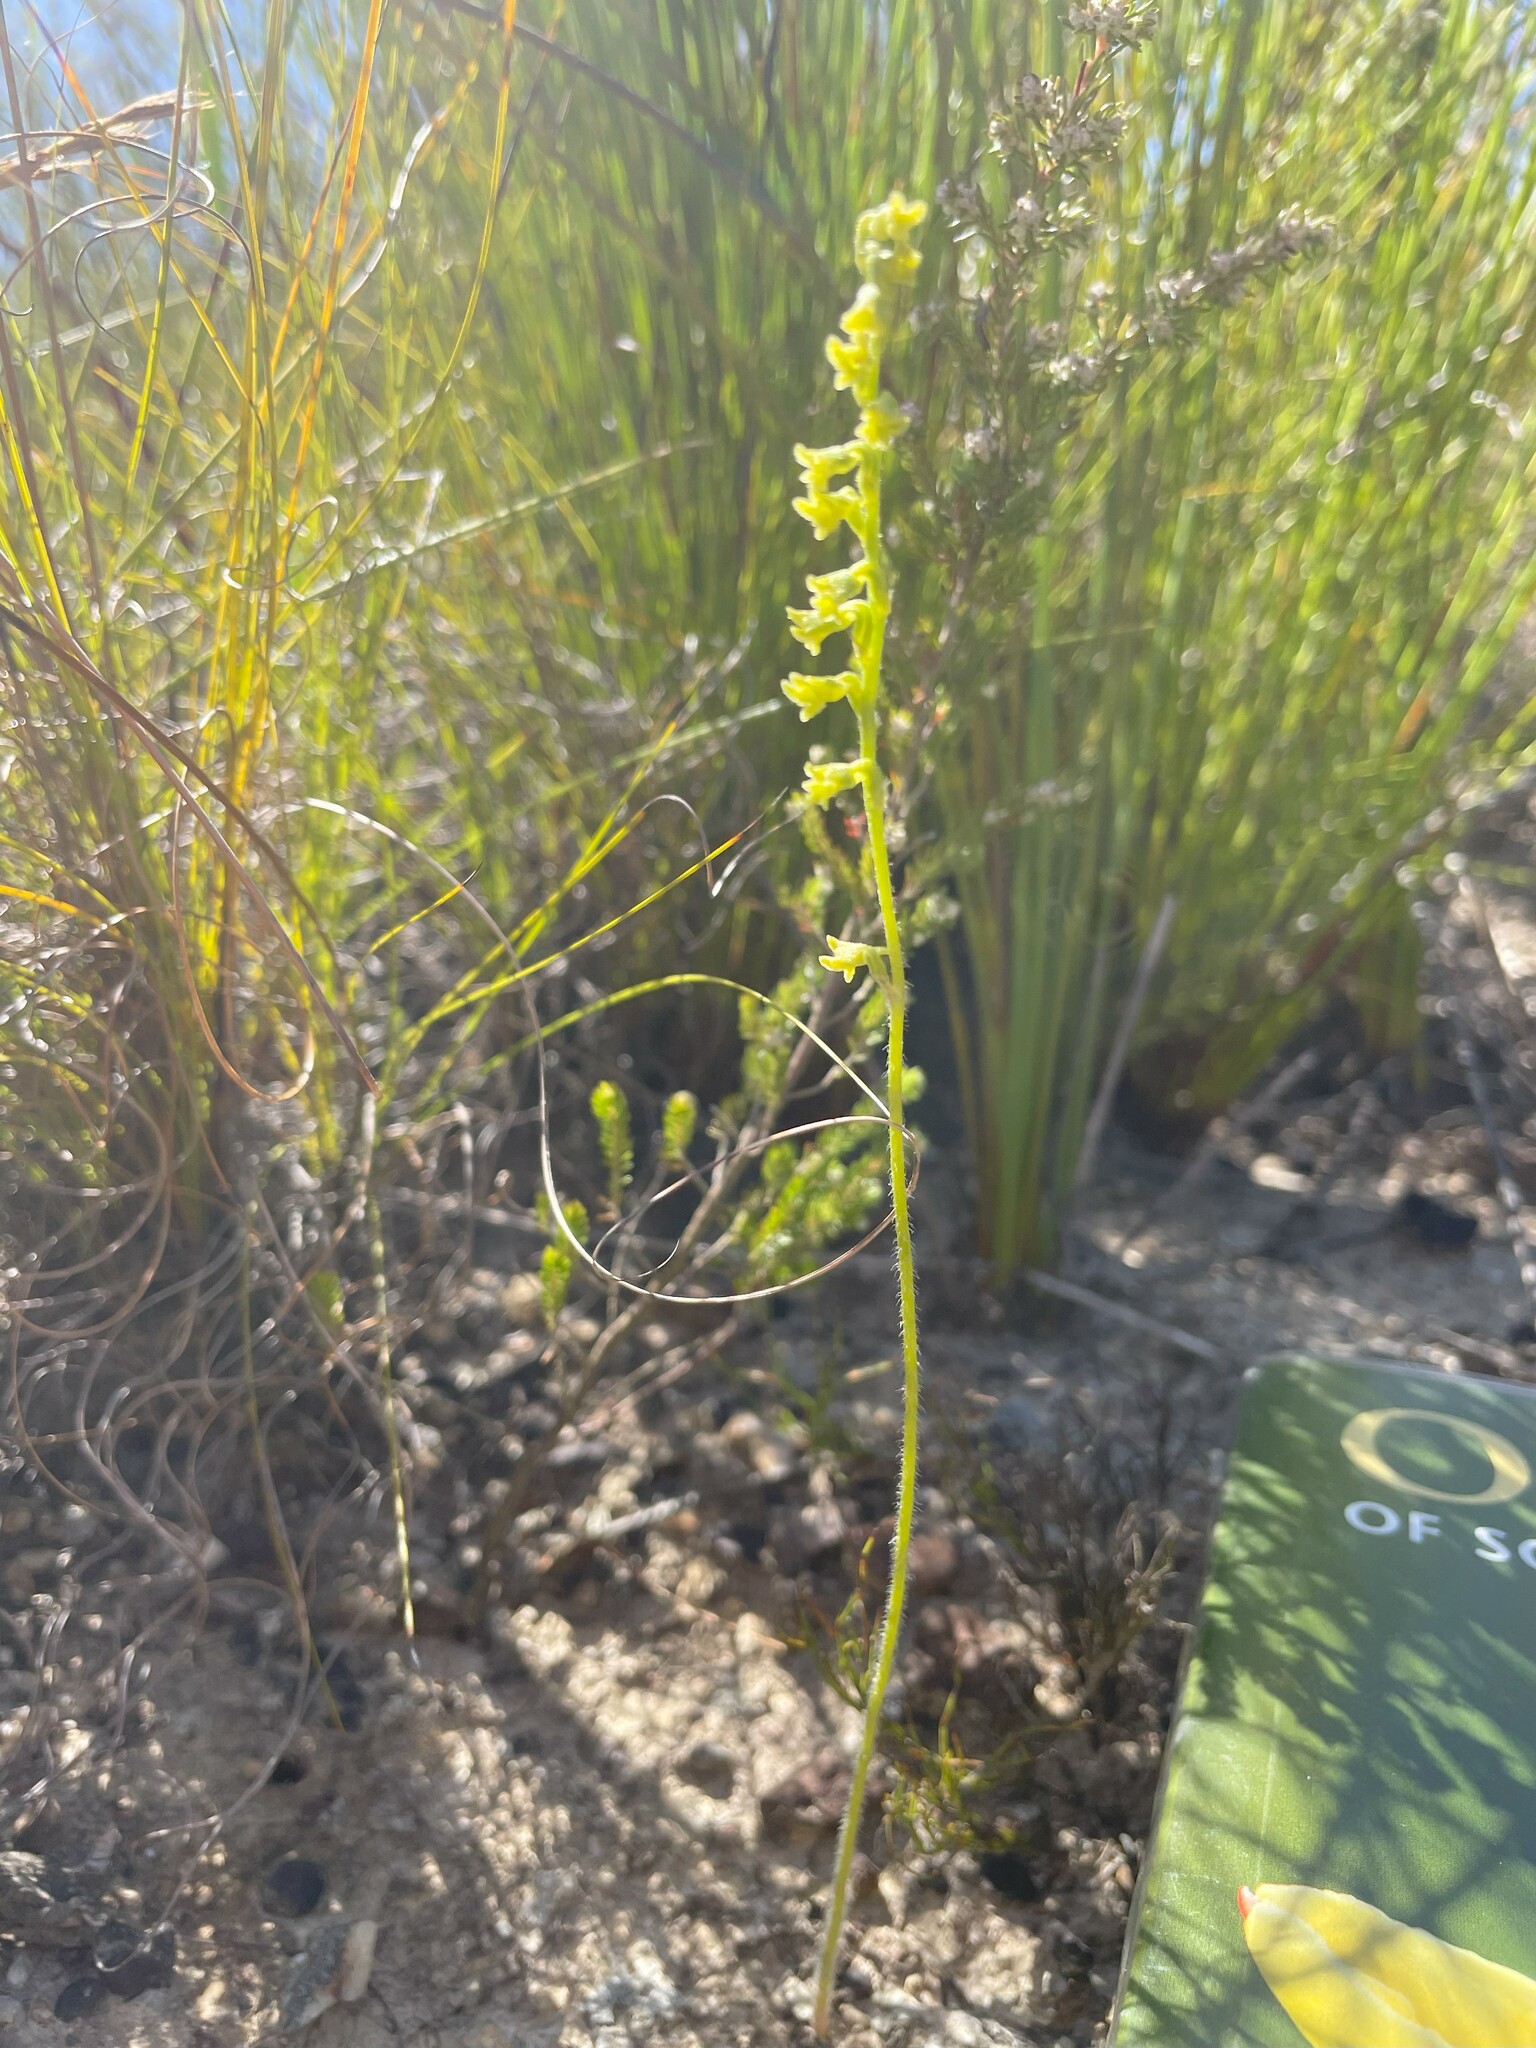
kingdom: Plantae
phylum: Tracheophyta
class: Liliopsida
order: Asparagales
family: Orchidaceae
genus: Holothrix
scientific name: Holothrix brevipetala
